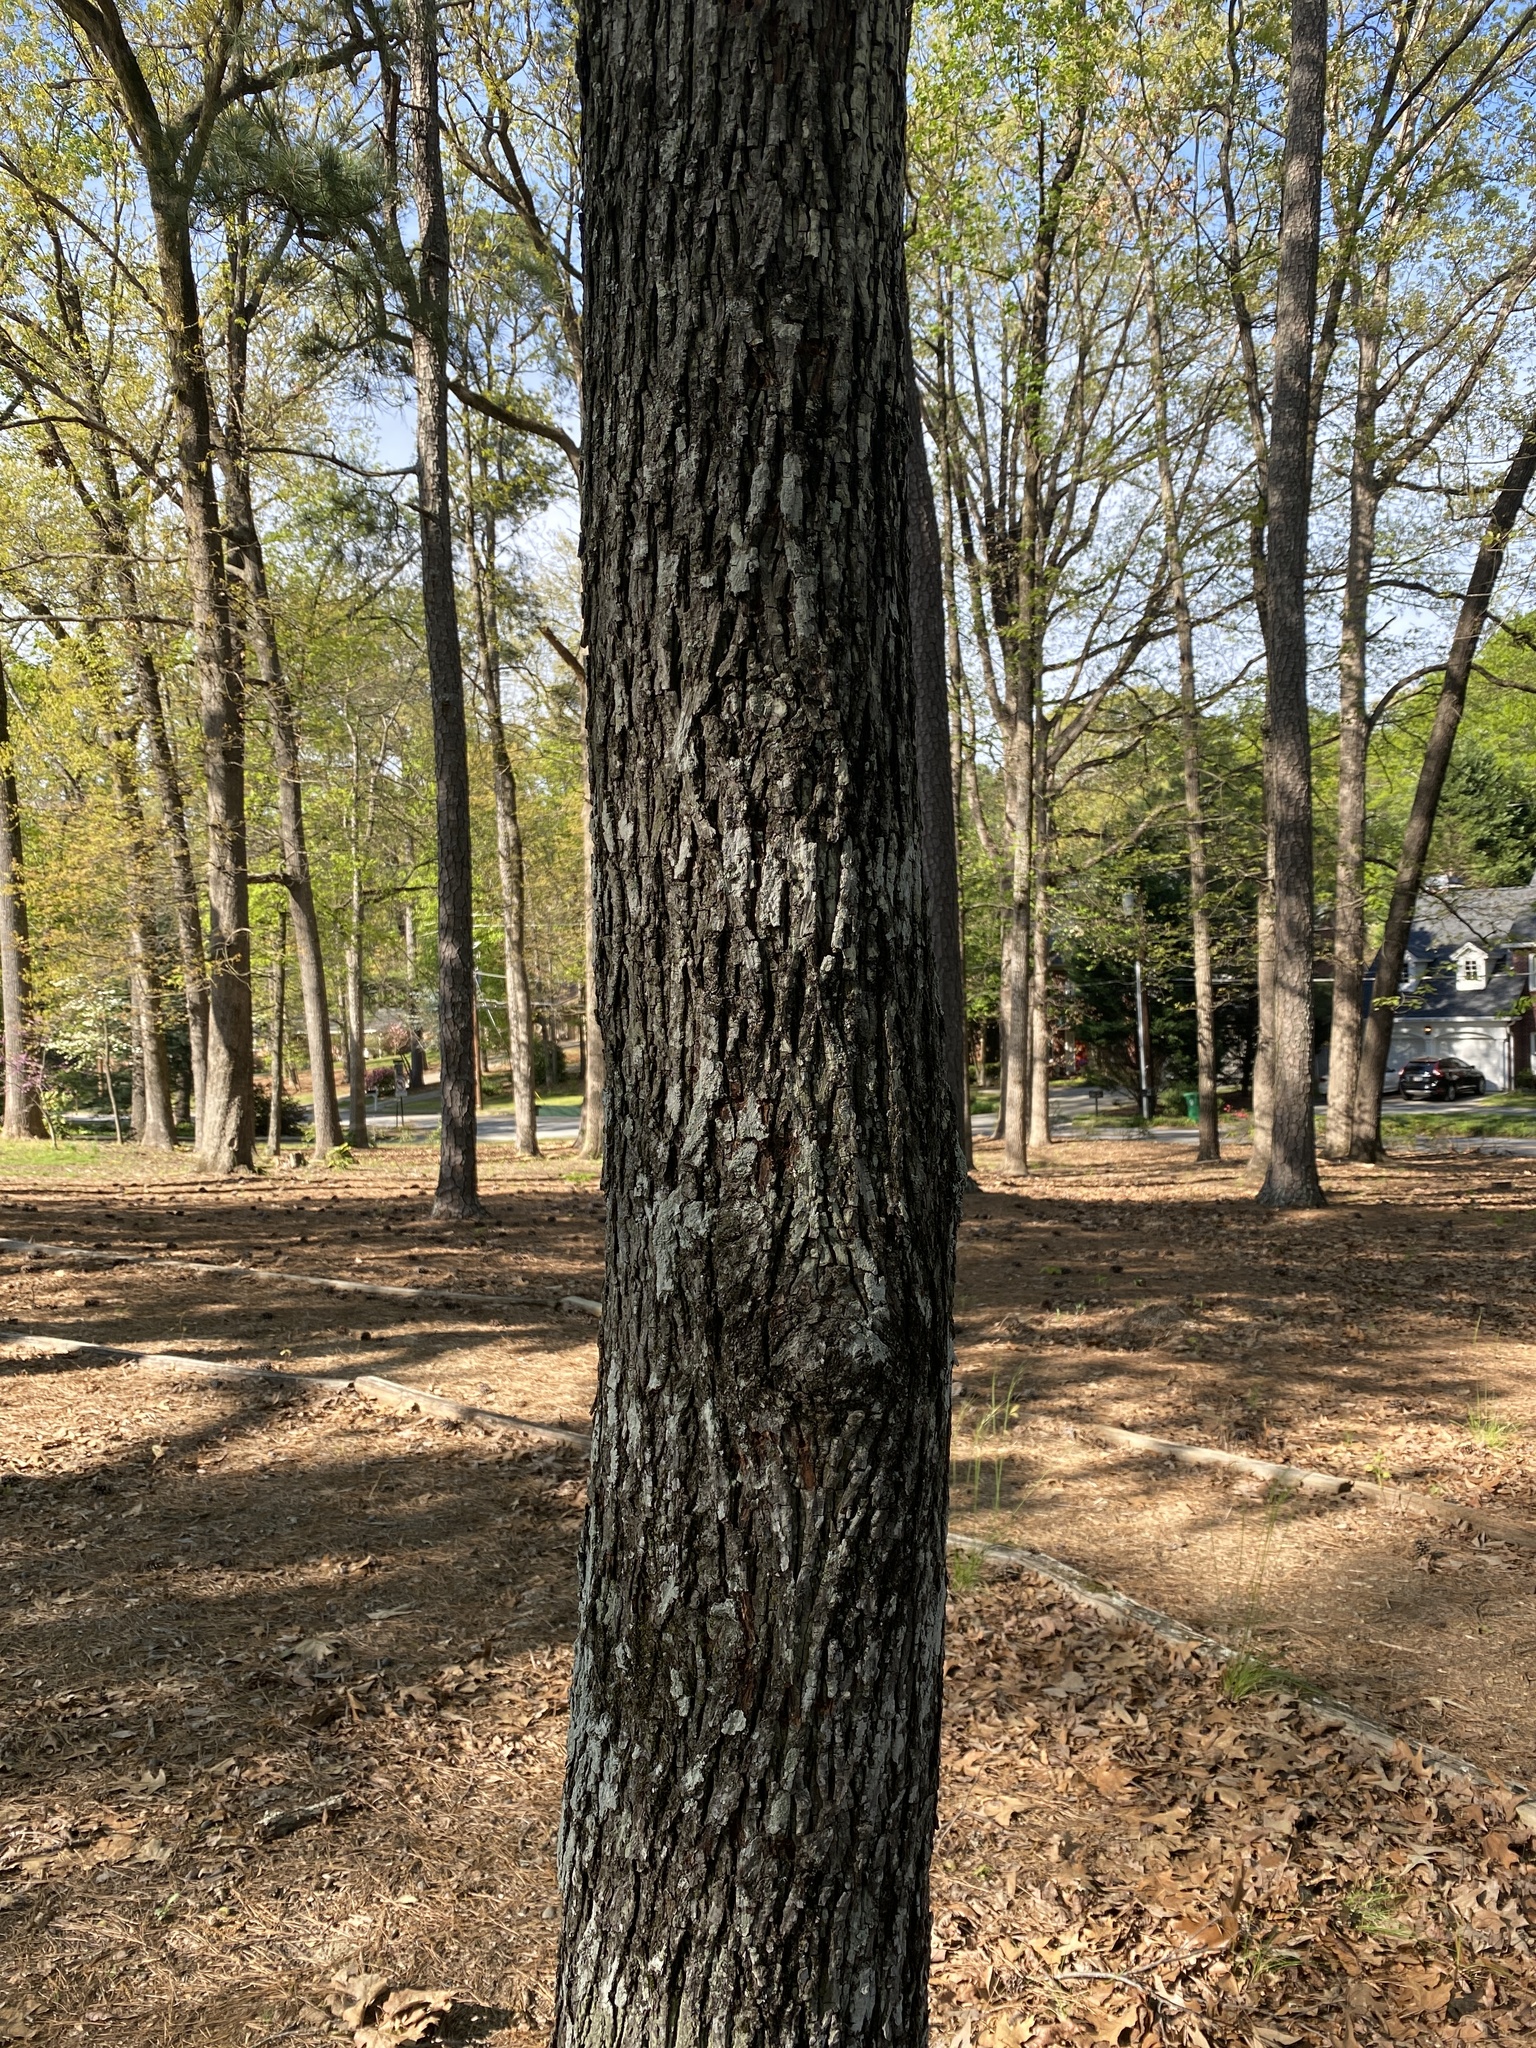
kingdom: Plantae
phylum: Tracheophyta
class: Magnoliopsida
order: Fagales
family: Juglandaceae
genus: Carya
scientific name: Carya glabra
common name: Pignut hickory
